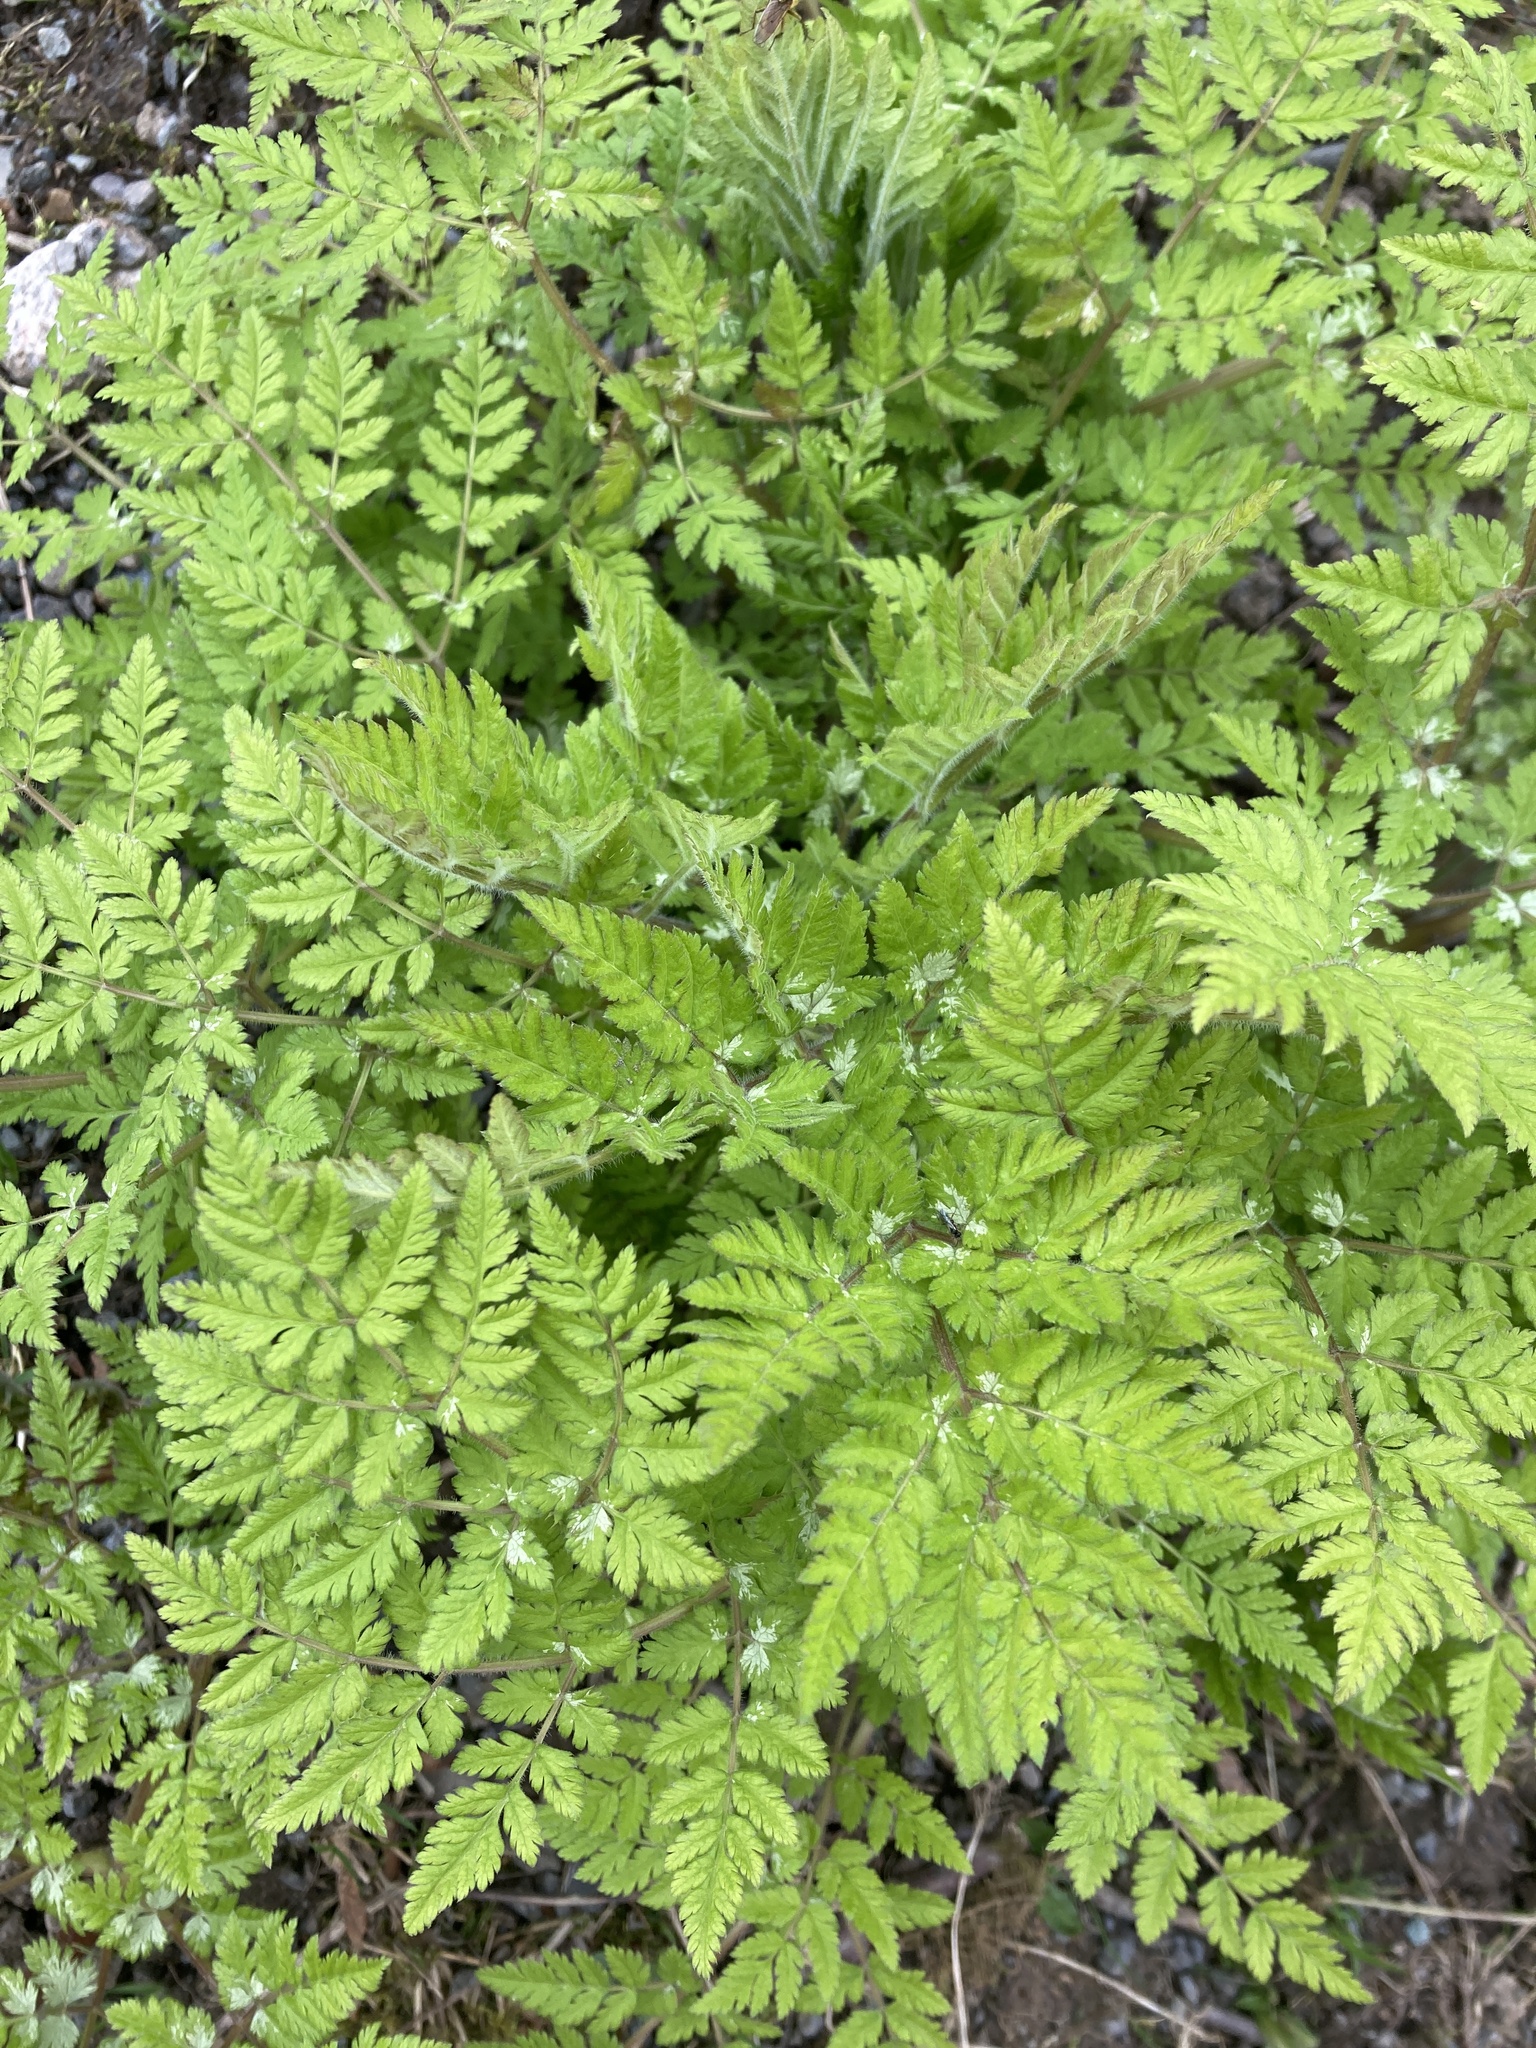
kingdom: Plantae
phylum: Tracheophyta
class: Magnoliopsida
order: Apiales
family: Apiaceae
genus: Myrrhis
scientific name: Myrrhis odorata
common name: Sweet cicely
